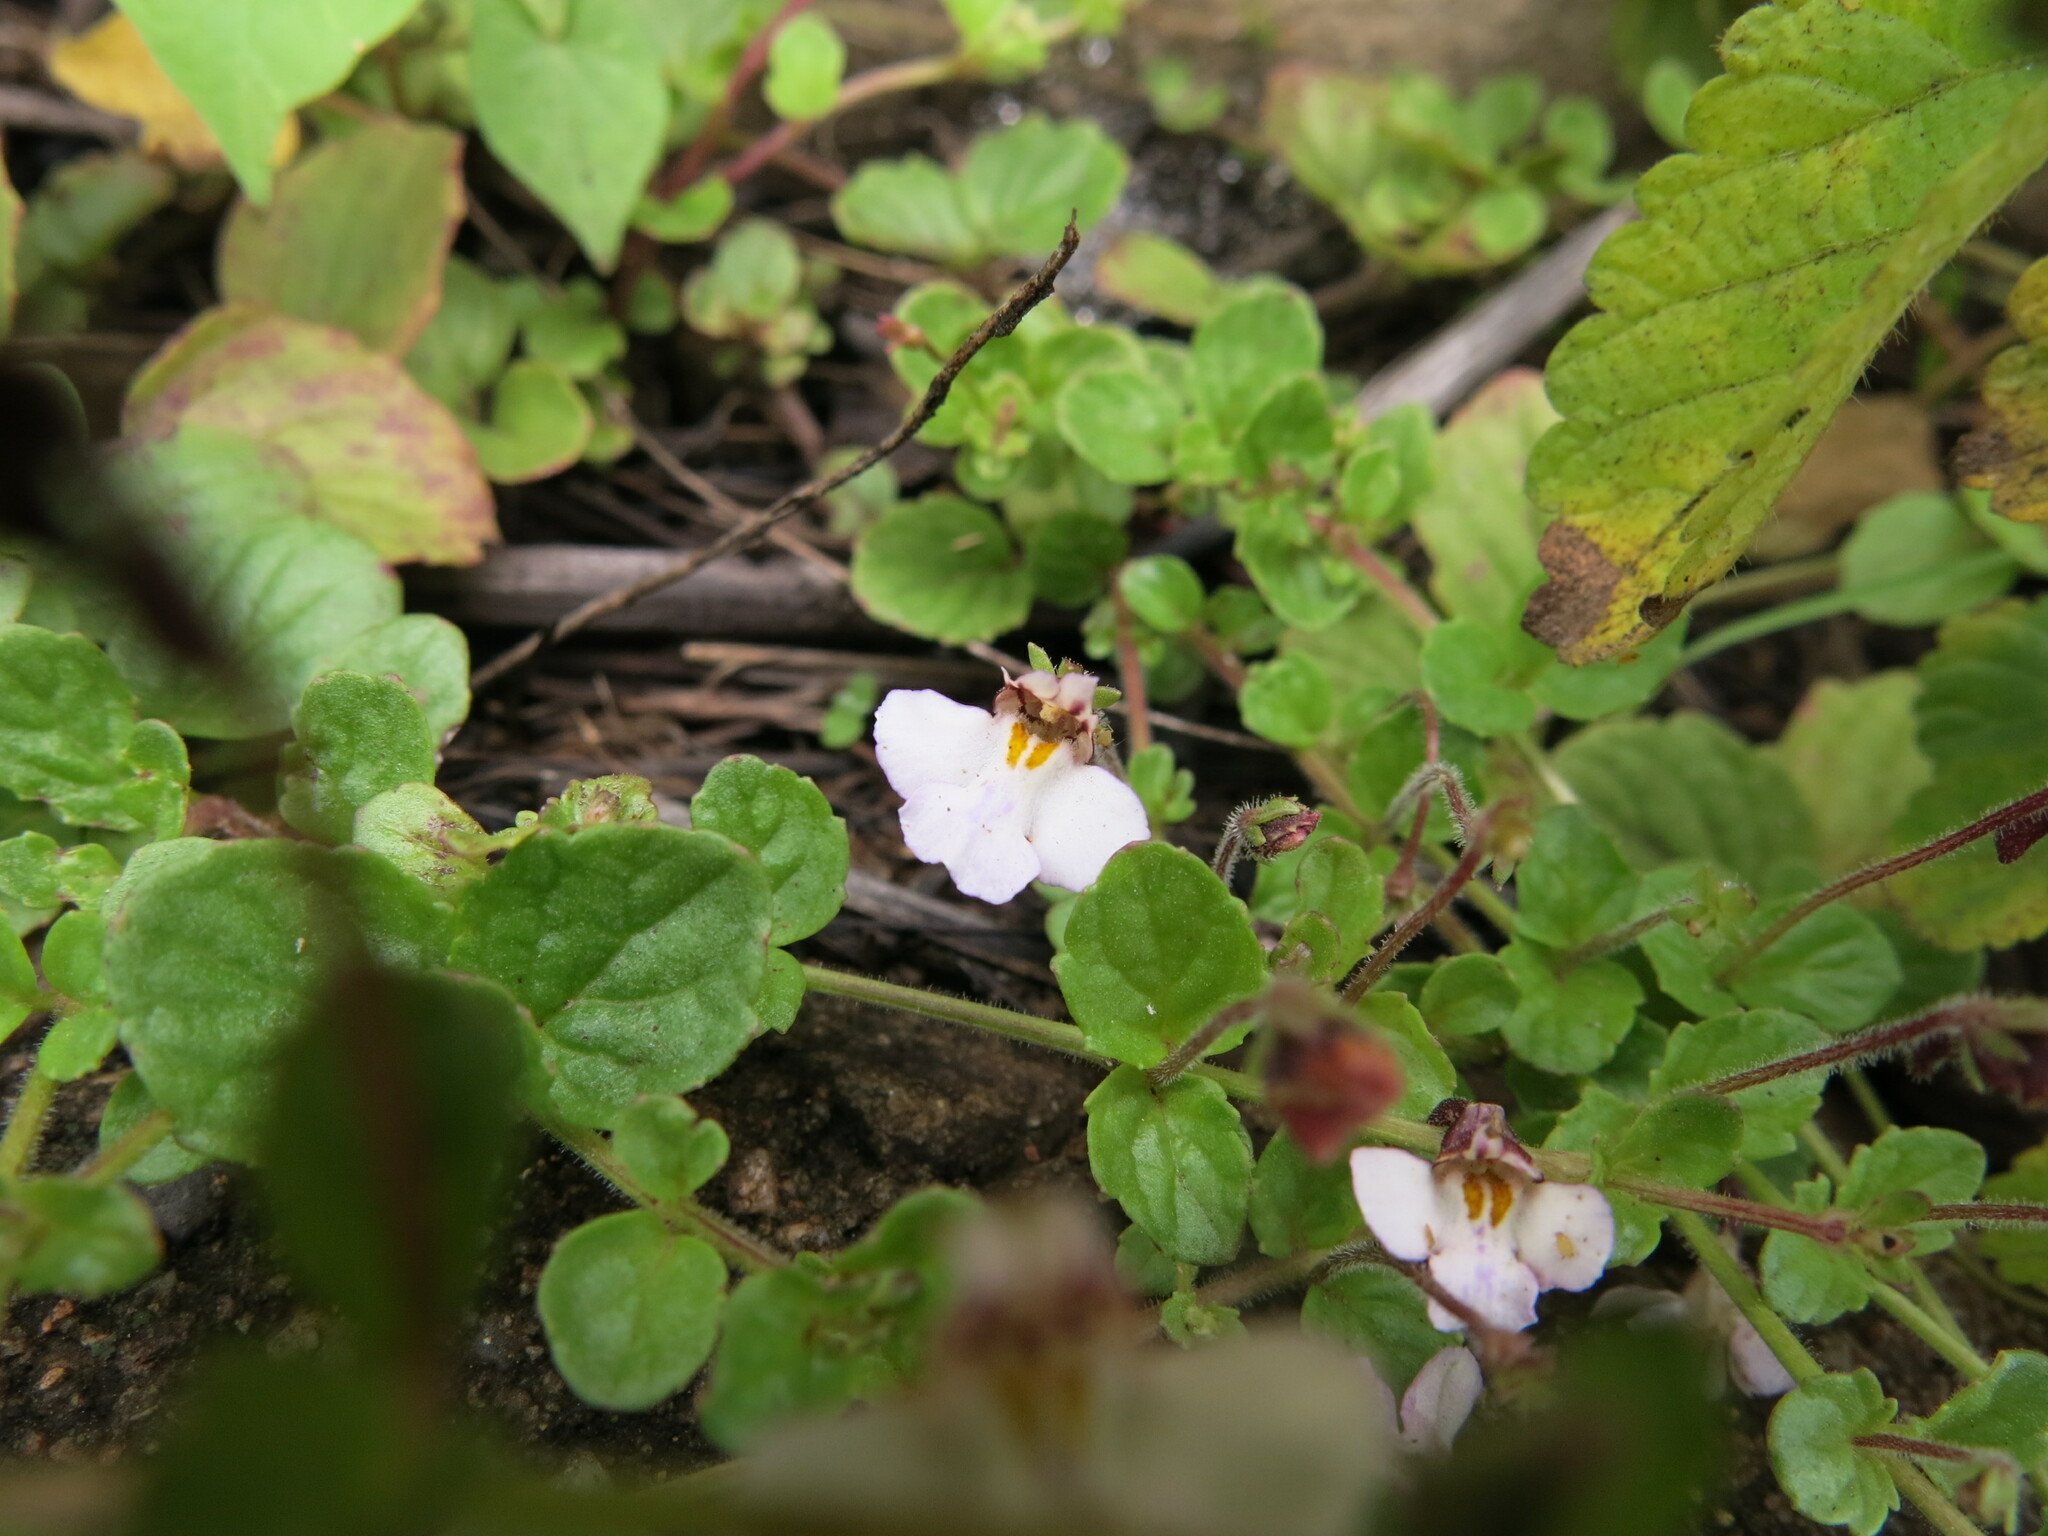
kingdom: Plantae
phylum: Tracheophyta
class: Magnoliopsida
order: Lamiales
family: Scrophulariaceae
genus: Diclis
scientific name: Diclis reptans
